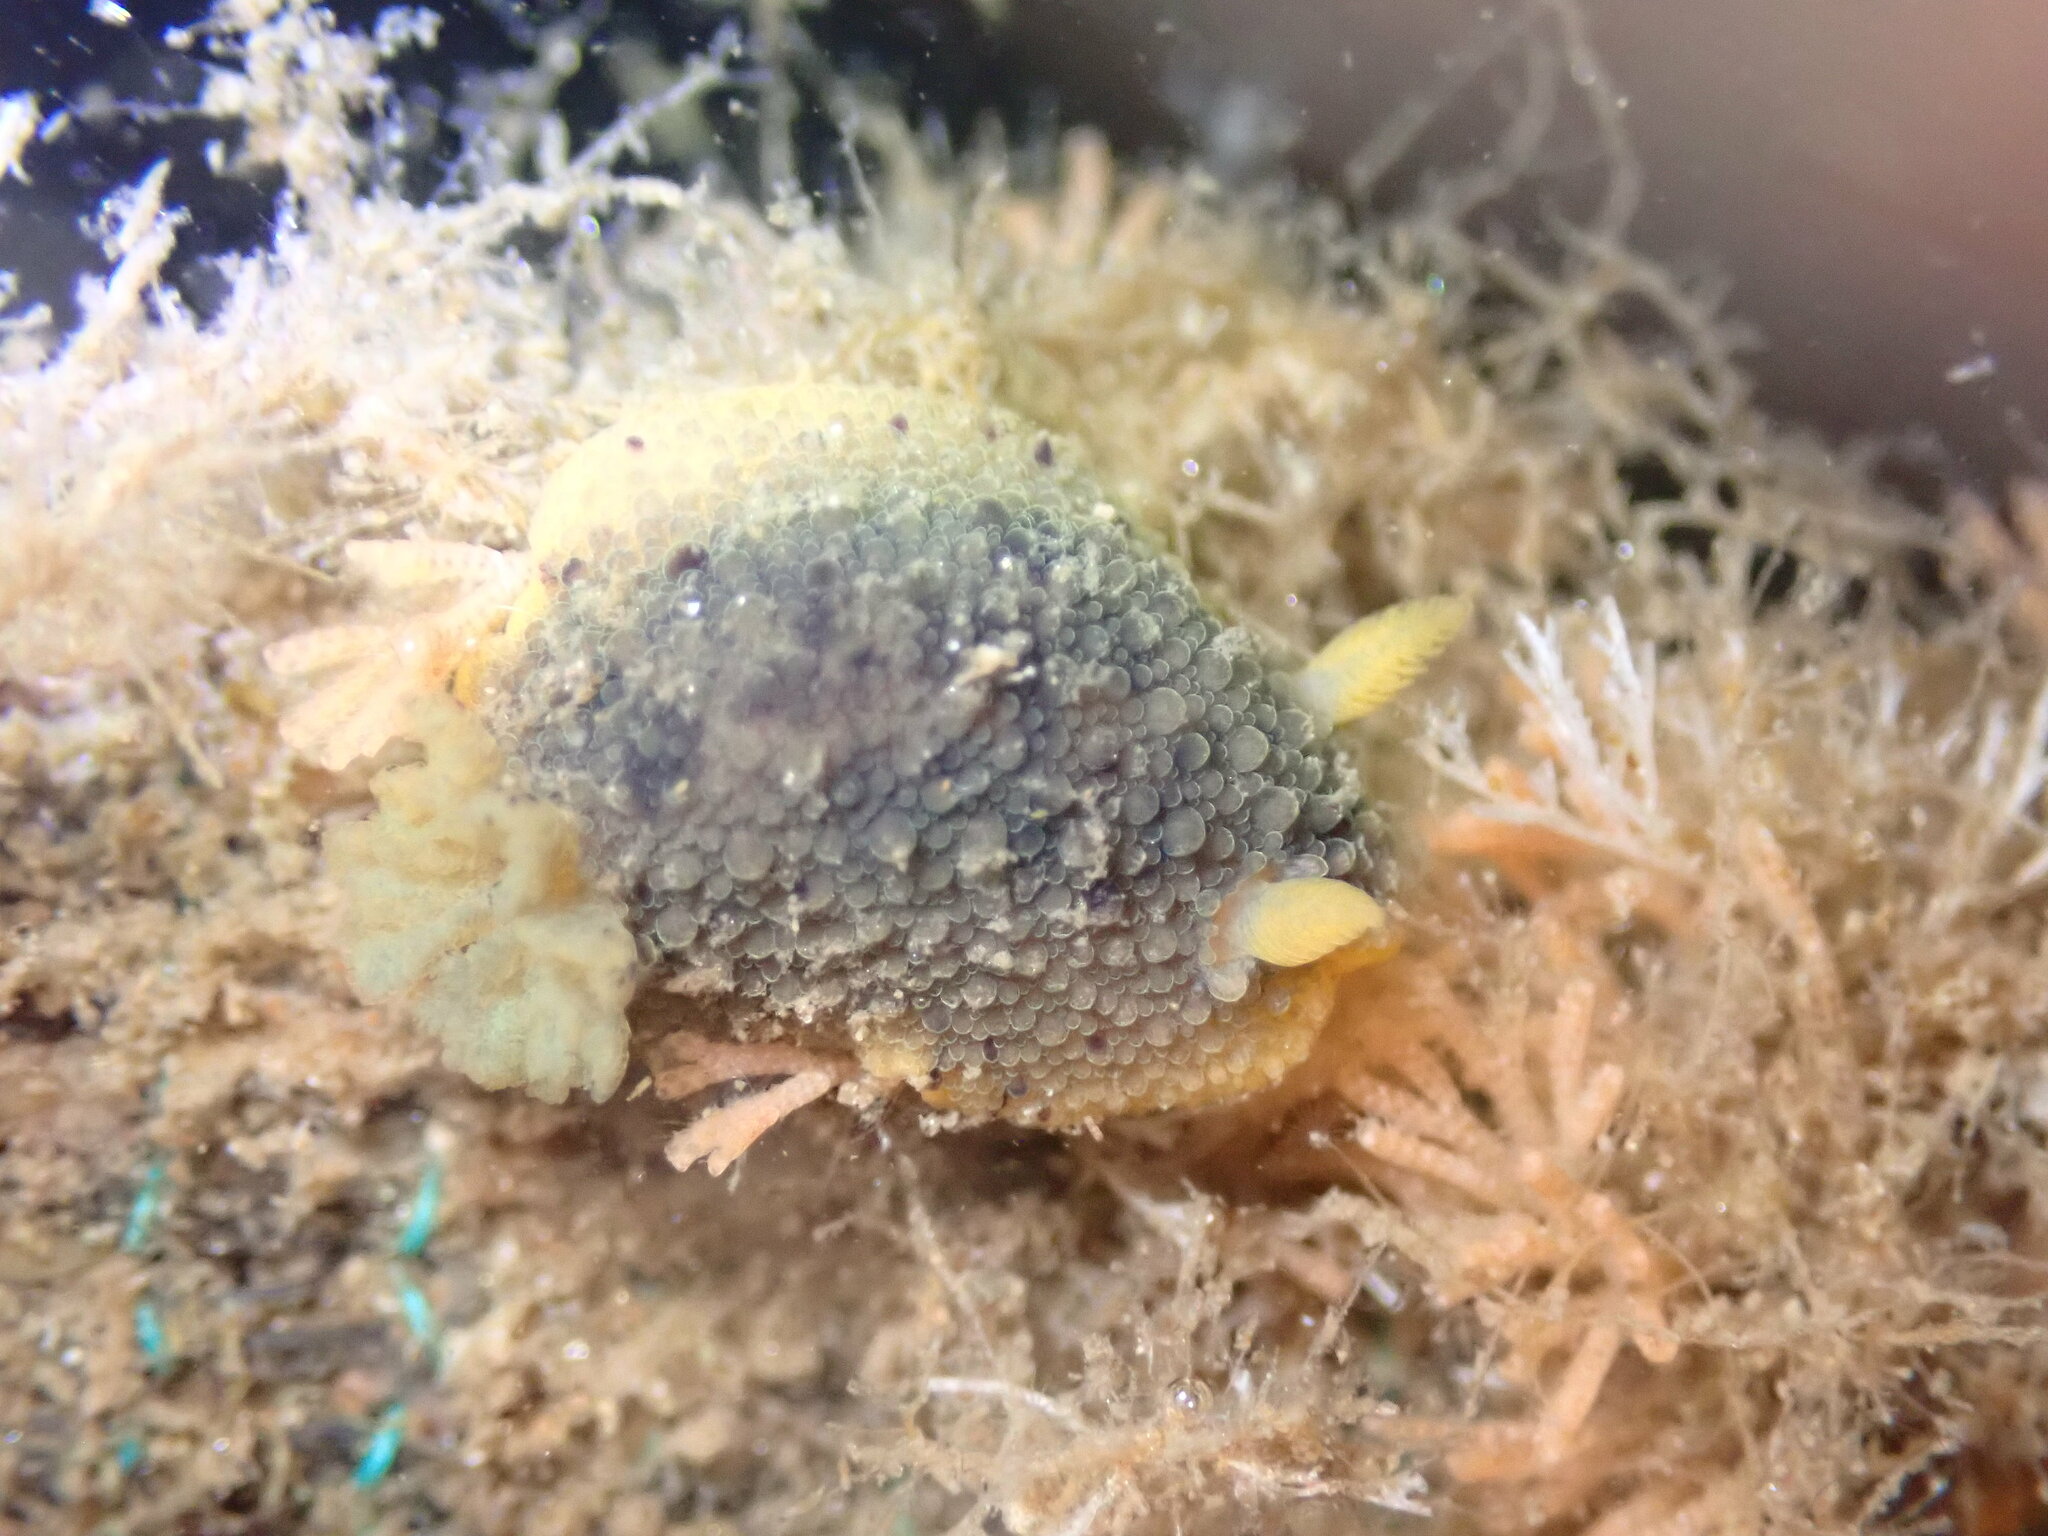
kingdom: Animalia
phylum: Mollusca
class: Gastropoda
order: Nudibranchia
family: Dorididae
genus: Doris
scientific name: Doris montereyensis
